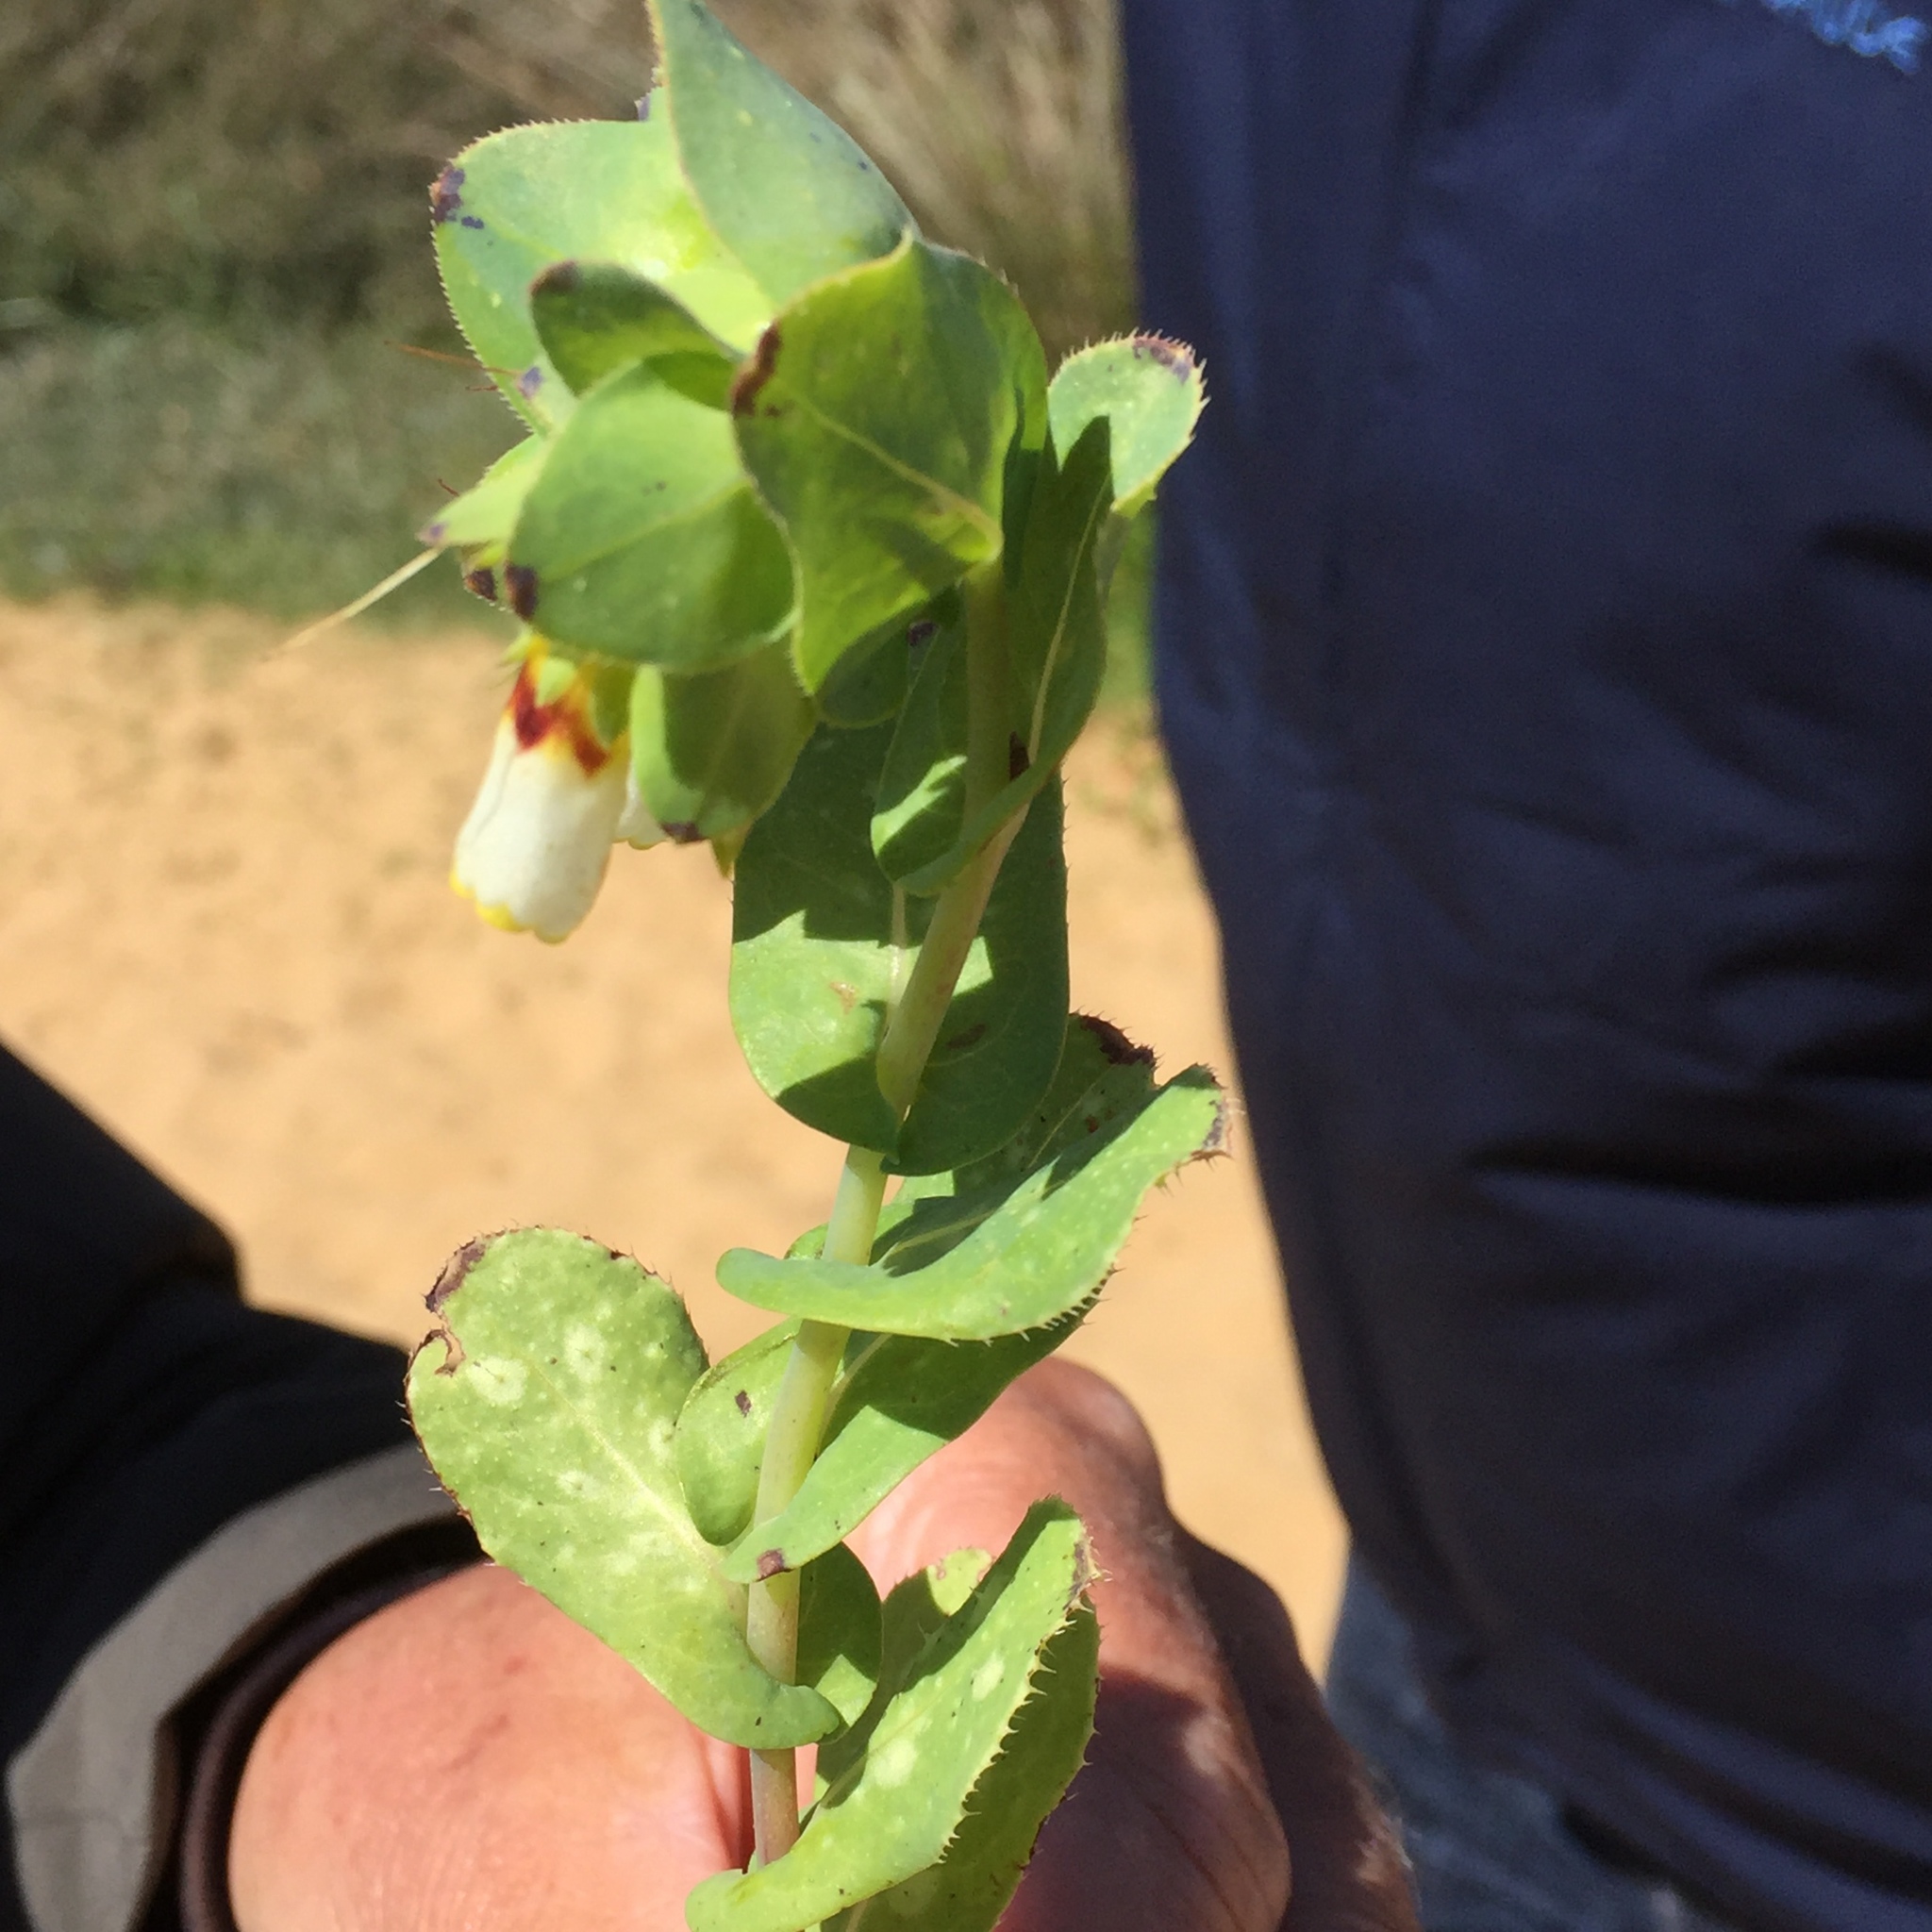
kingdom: Plantae
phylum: Tracheophyta
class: Magnoliopsida
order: Boraginales
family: Boraginaceae
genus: Cerinthe
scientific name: Cerinthe major
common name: Greater honeywort
